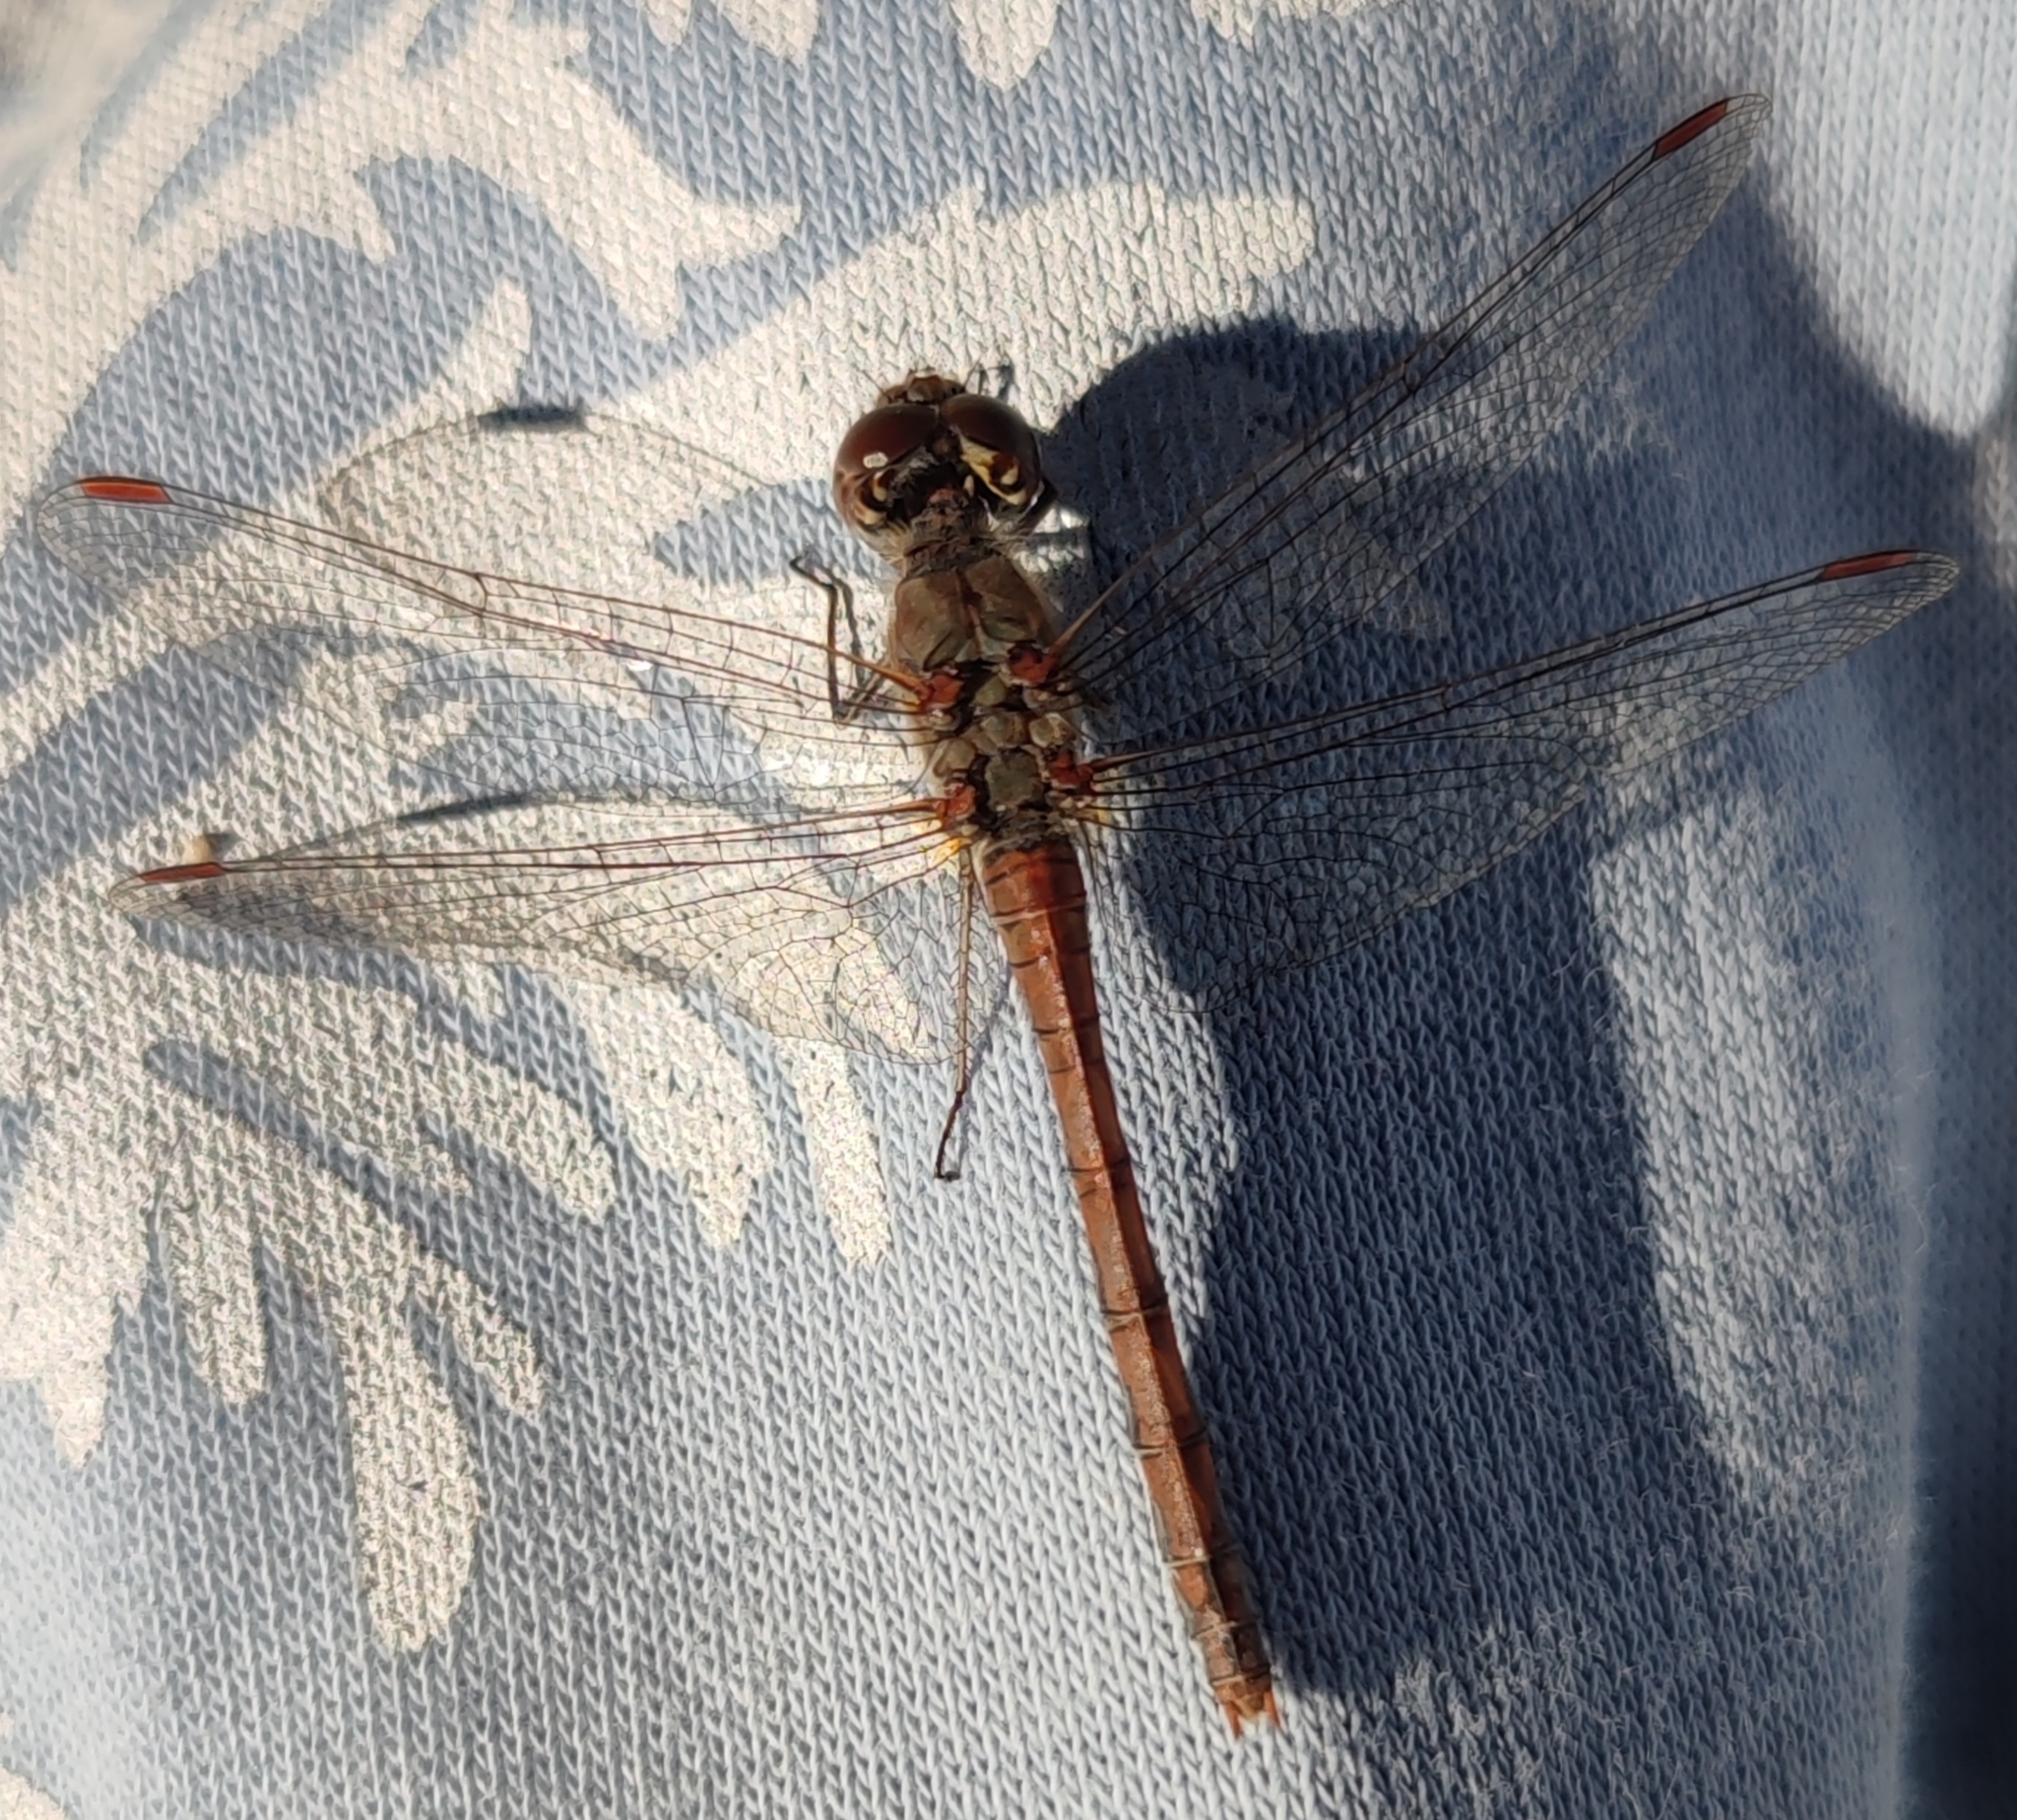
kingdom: Animalia
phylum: Arthropoda
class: Insecta
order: Odonata
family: Libellulidae
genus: Sympetrum
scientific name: Sympetrum striolatum
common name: Common darter
